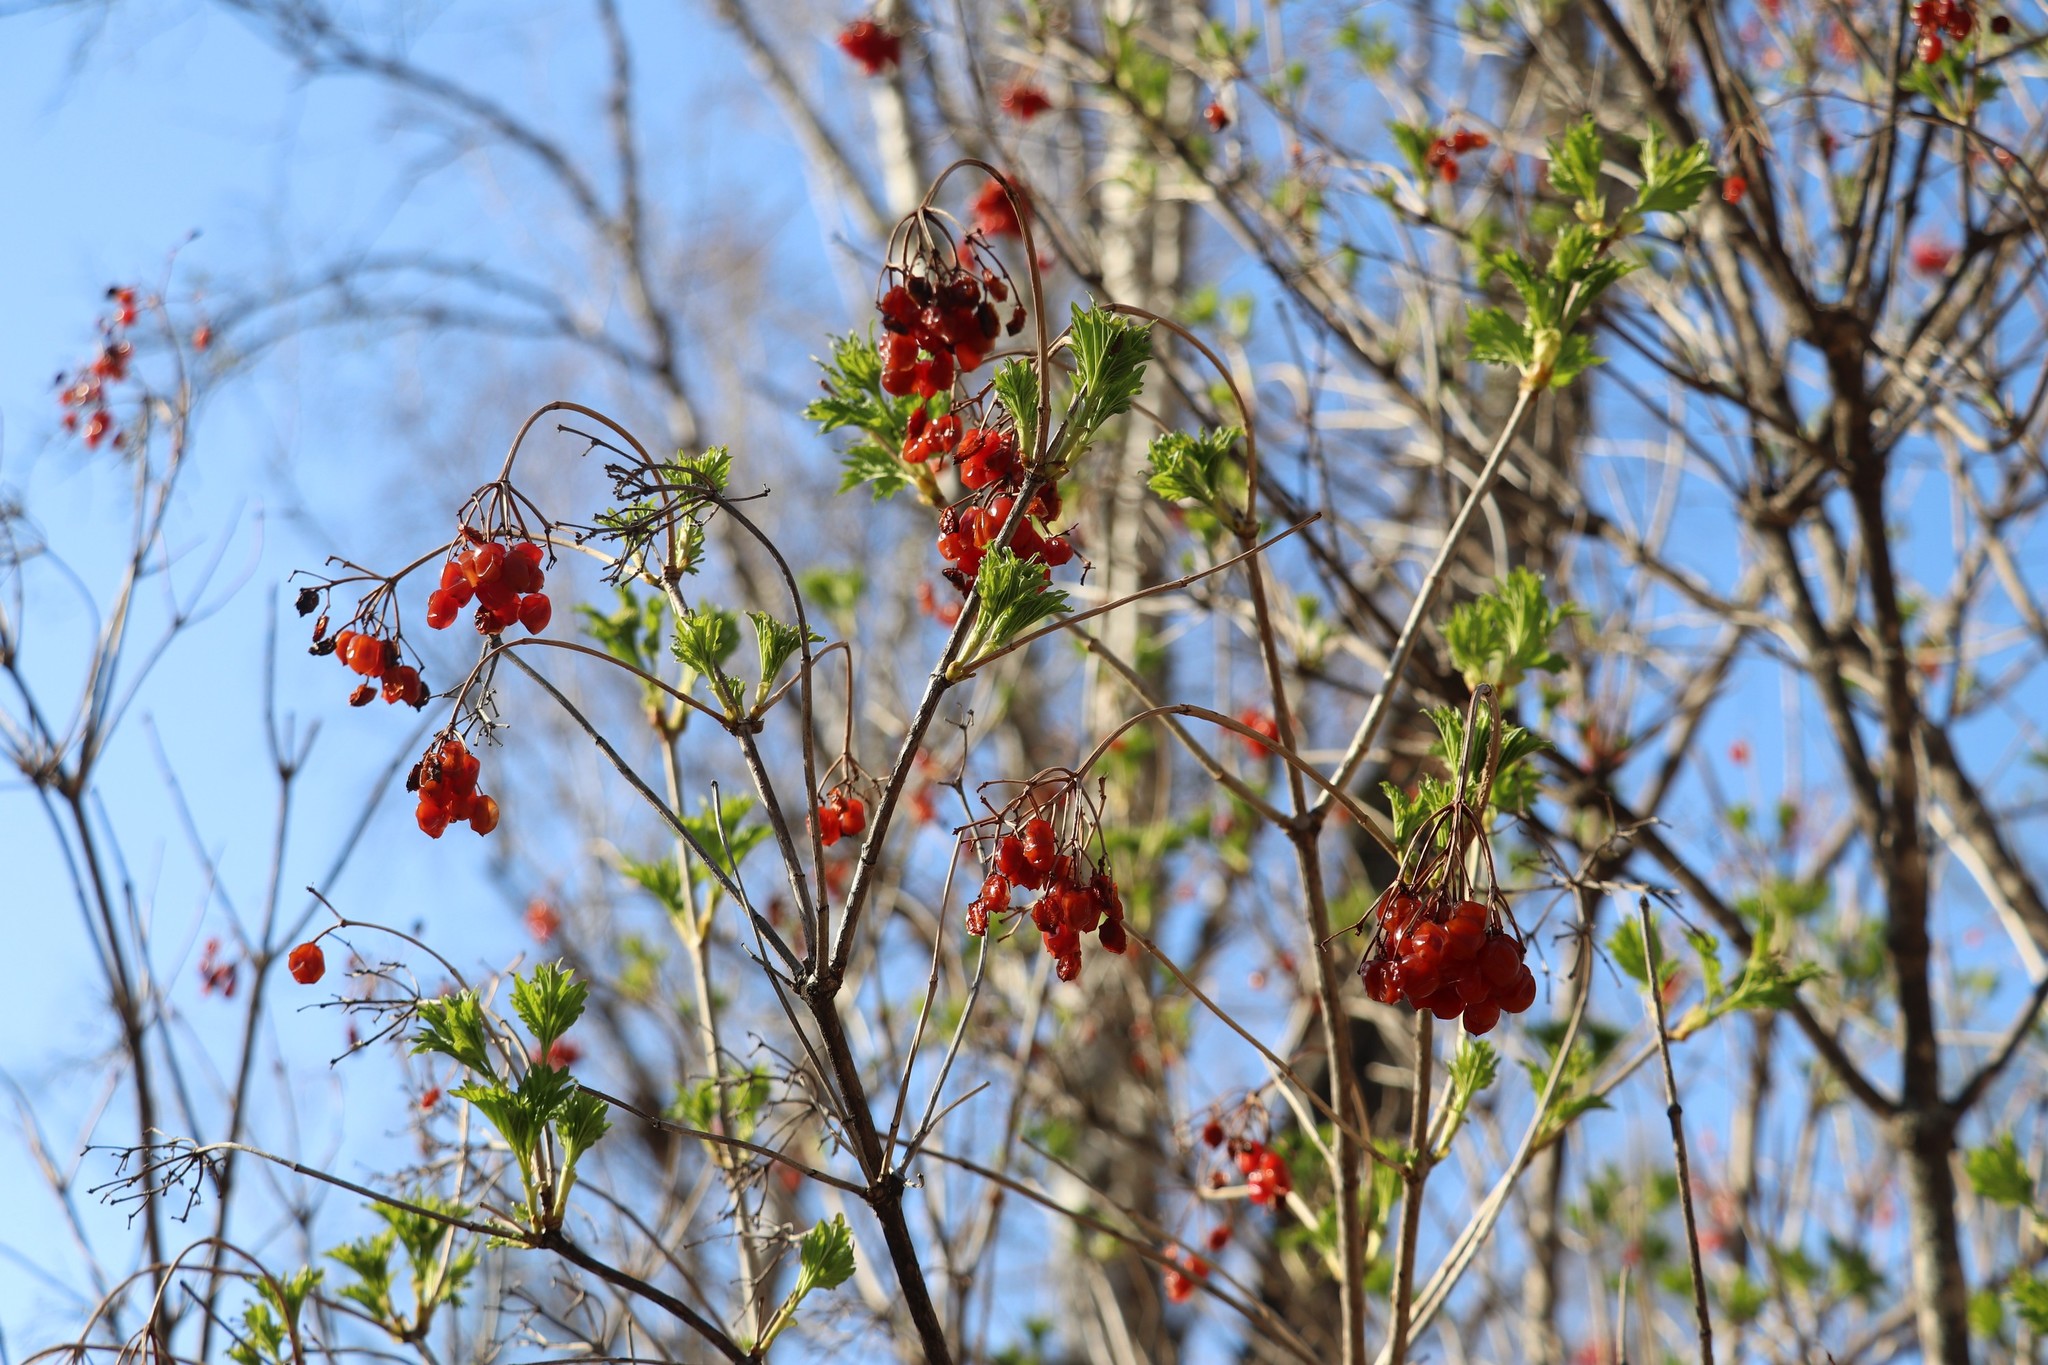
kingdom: Plantae
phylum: Tracheophyta
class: Magnoliopsida
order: Dipsacales
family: Viburnaceae
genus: Viburnum
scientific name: Viburnum opulus
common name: Guelder-rose
